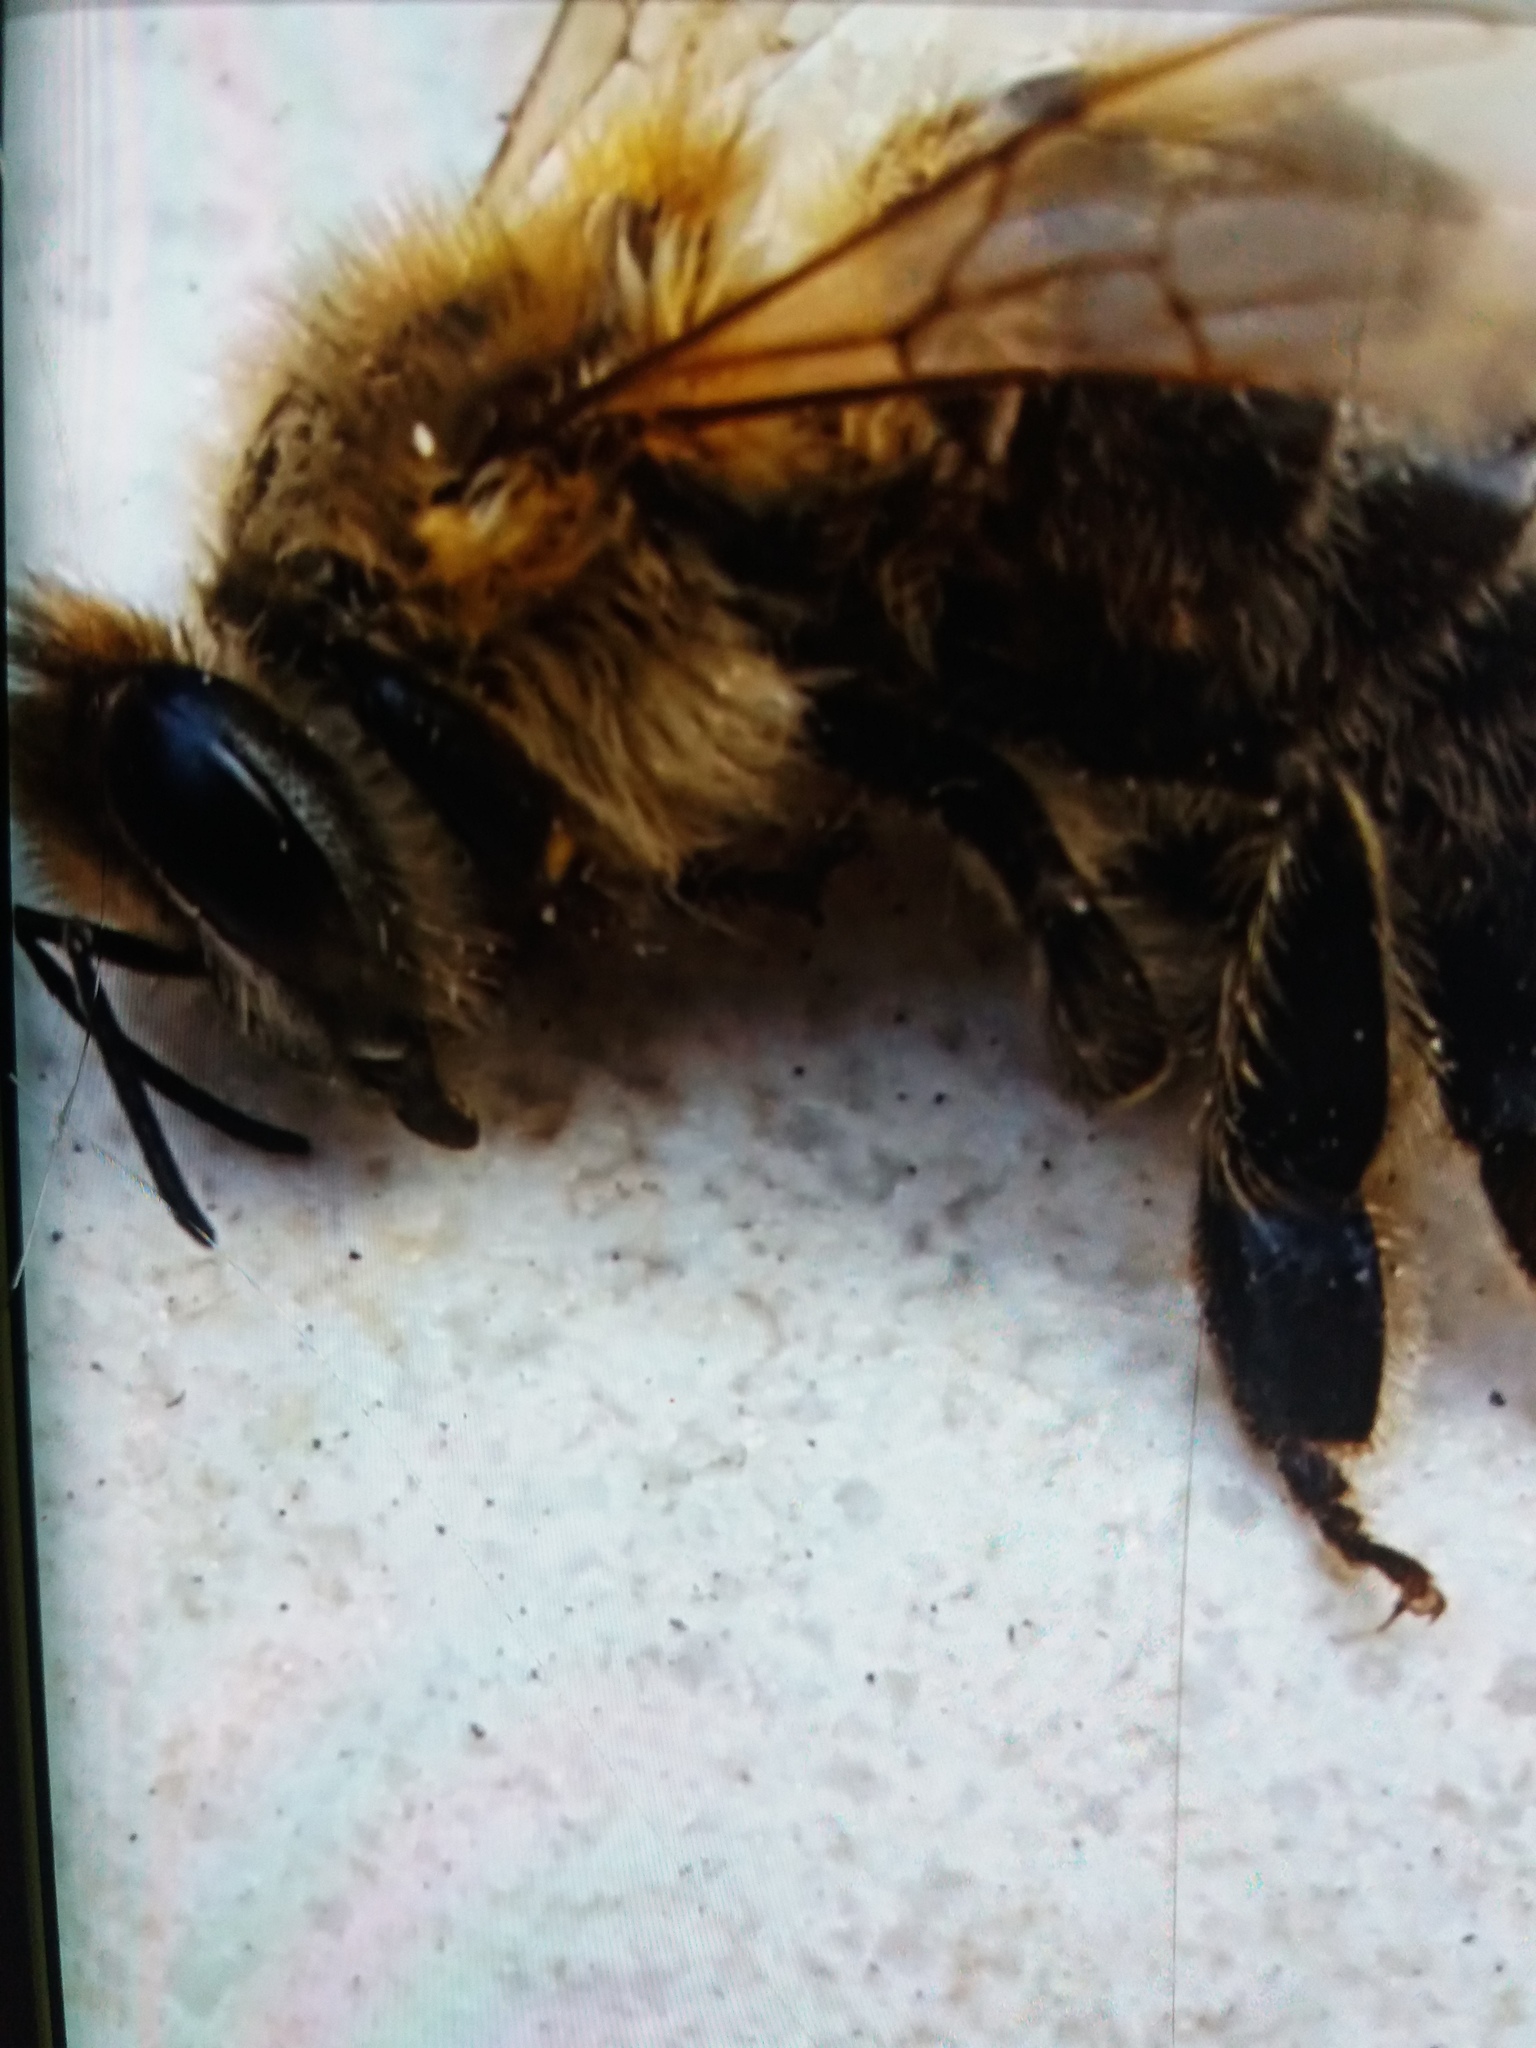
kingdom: Animalia
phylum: Arthropoda
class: Insecta
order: Hymenoptera
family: Apidae
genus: Apis
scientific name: Apis mellifera
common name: Honey bee
